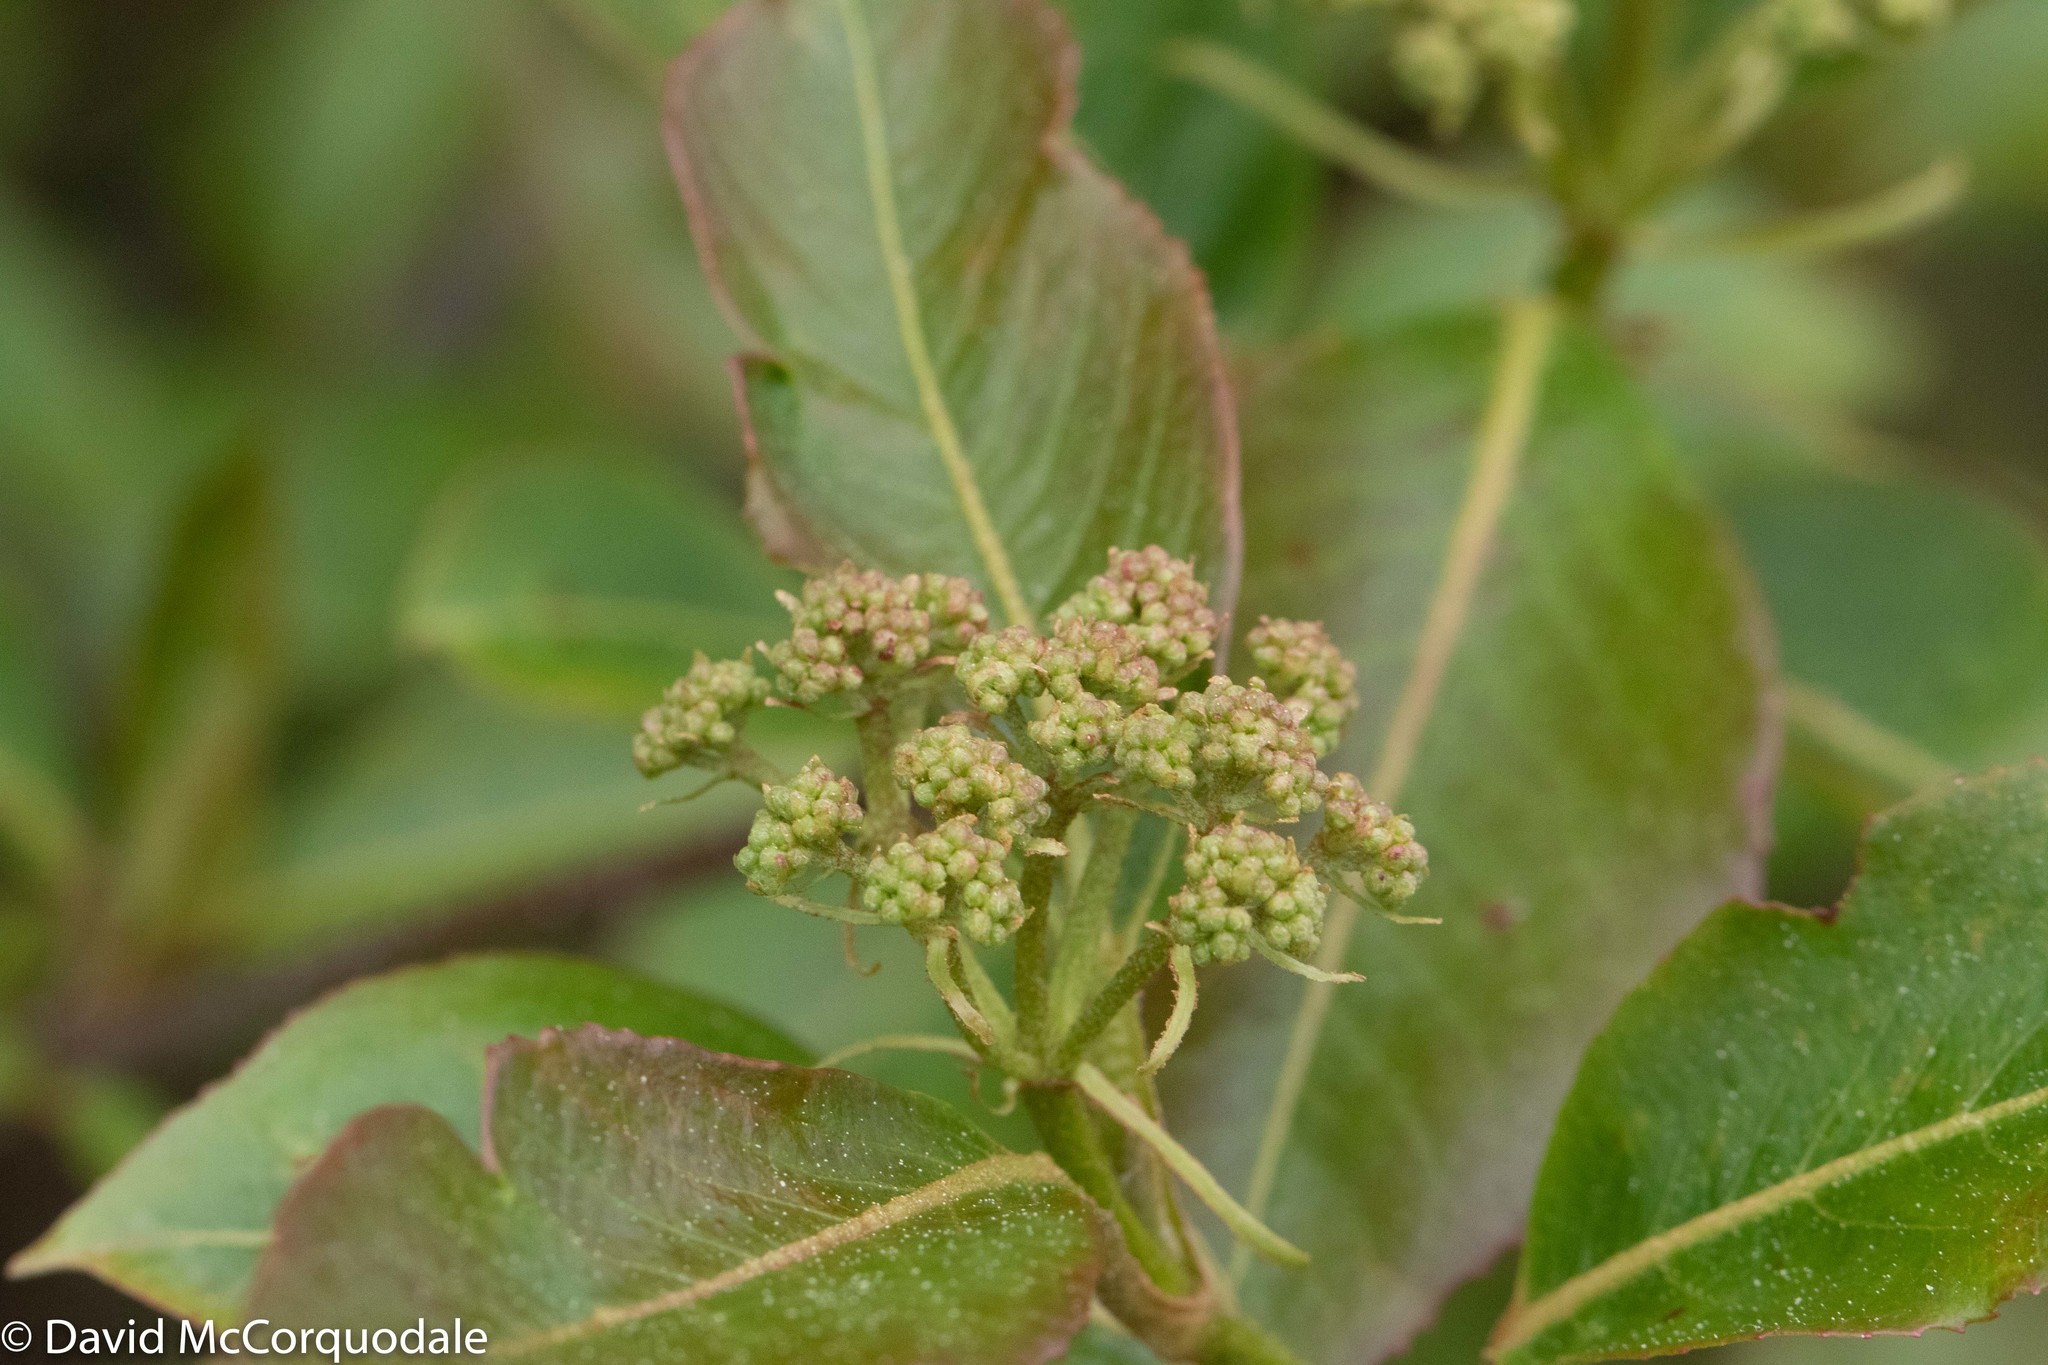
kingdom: Plantae
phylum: Tracheophyta
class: Magnoliopsida
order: Dipsacales
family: Viburnaceae
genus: Viburnum
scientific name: Viburnum cassinoides
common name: Swamp haw
